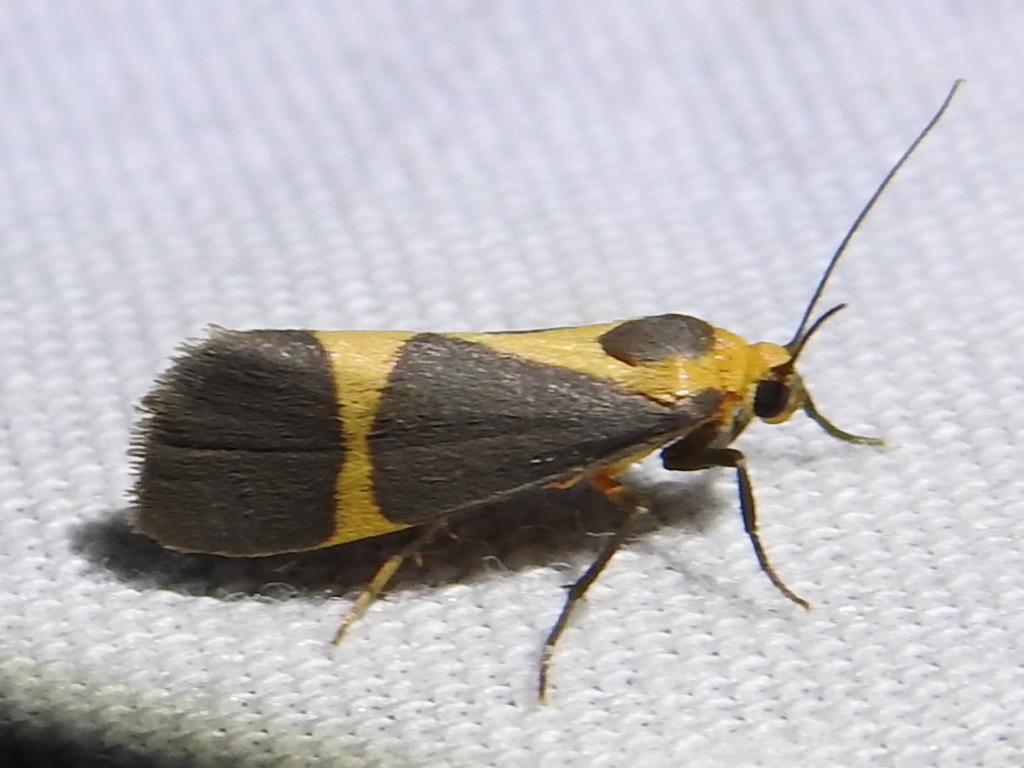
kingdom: Animalia
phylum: Arthropoda
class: Insecta
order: Lepidoptera
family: Erebidae
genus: Cisthene
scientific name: Cisthene tenuifascia
